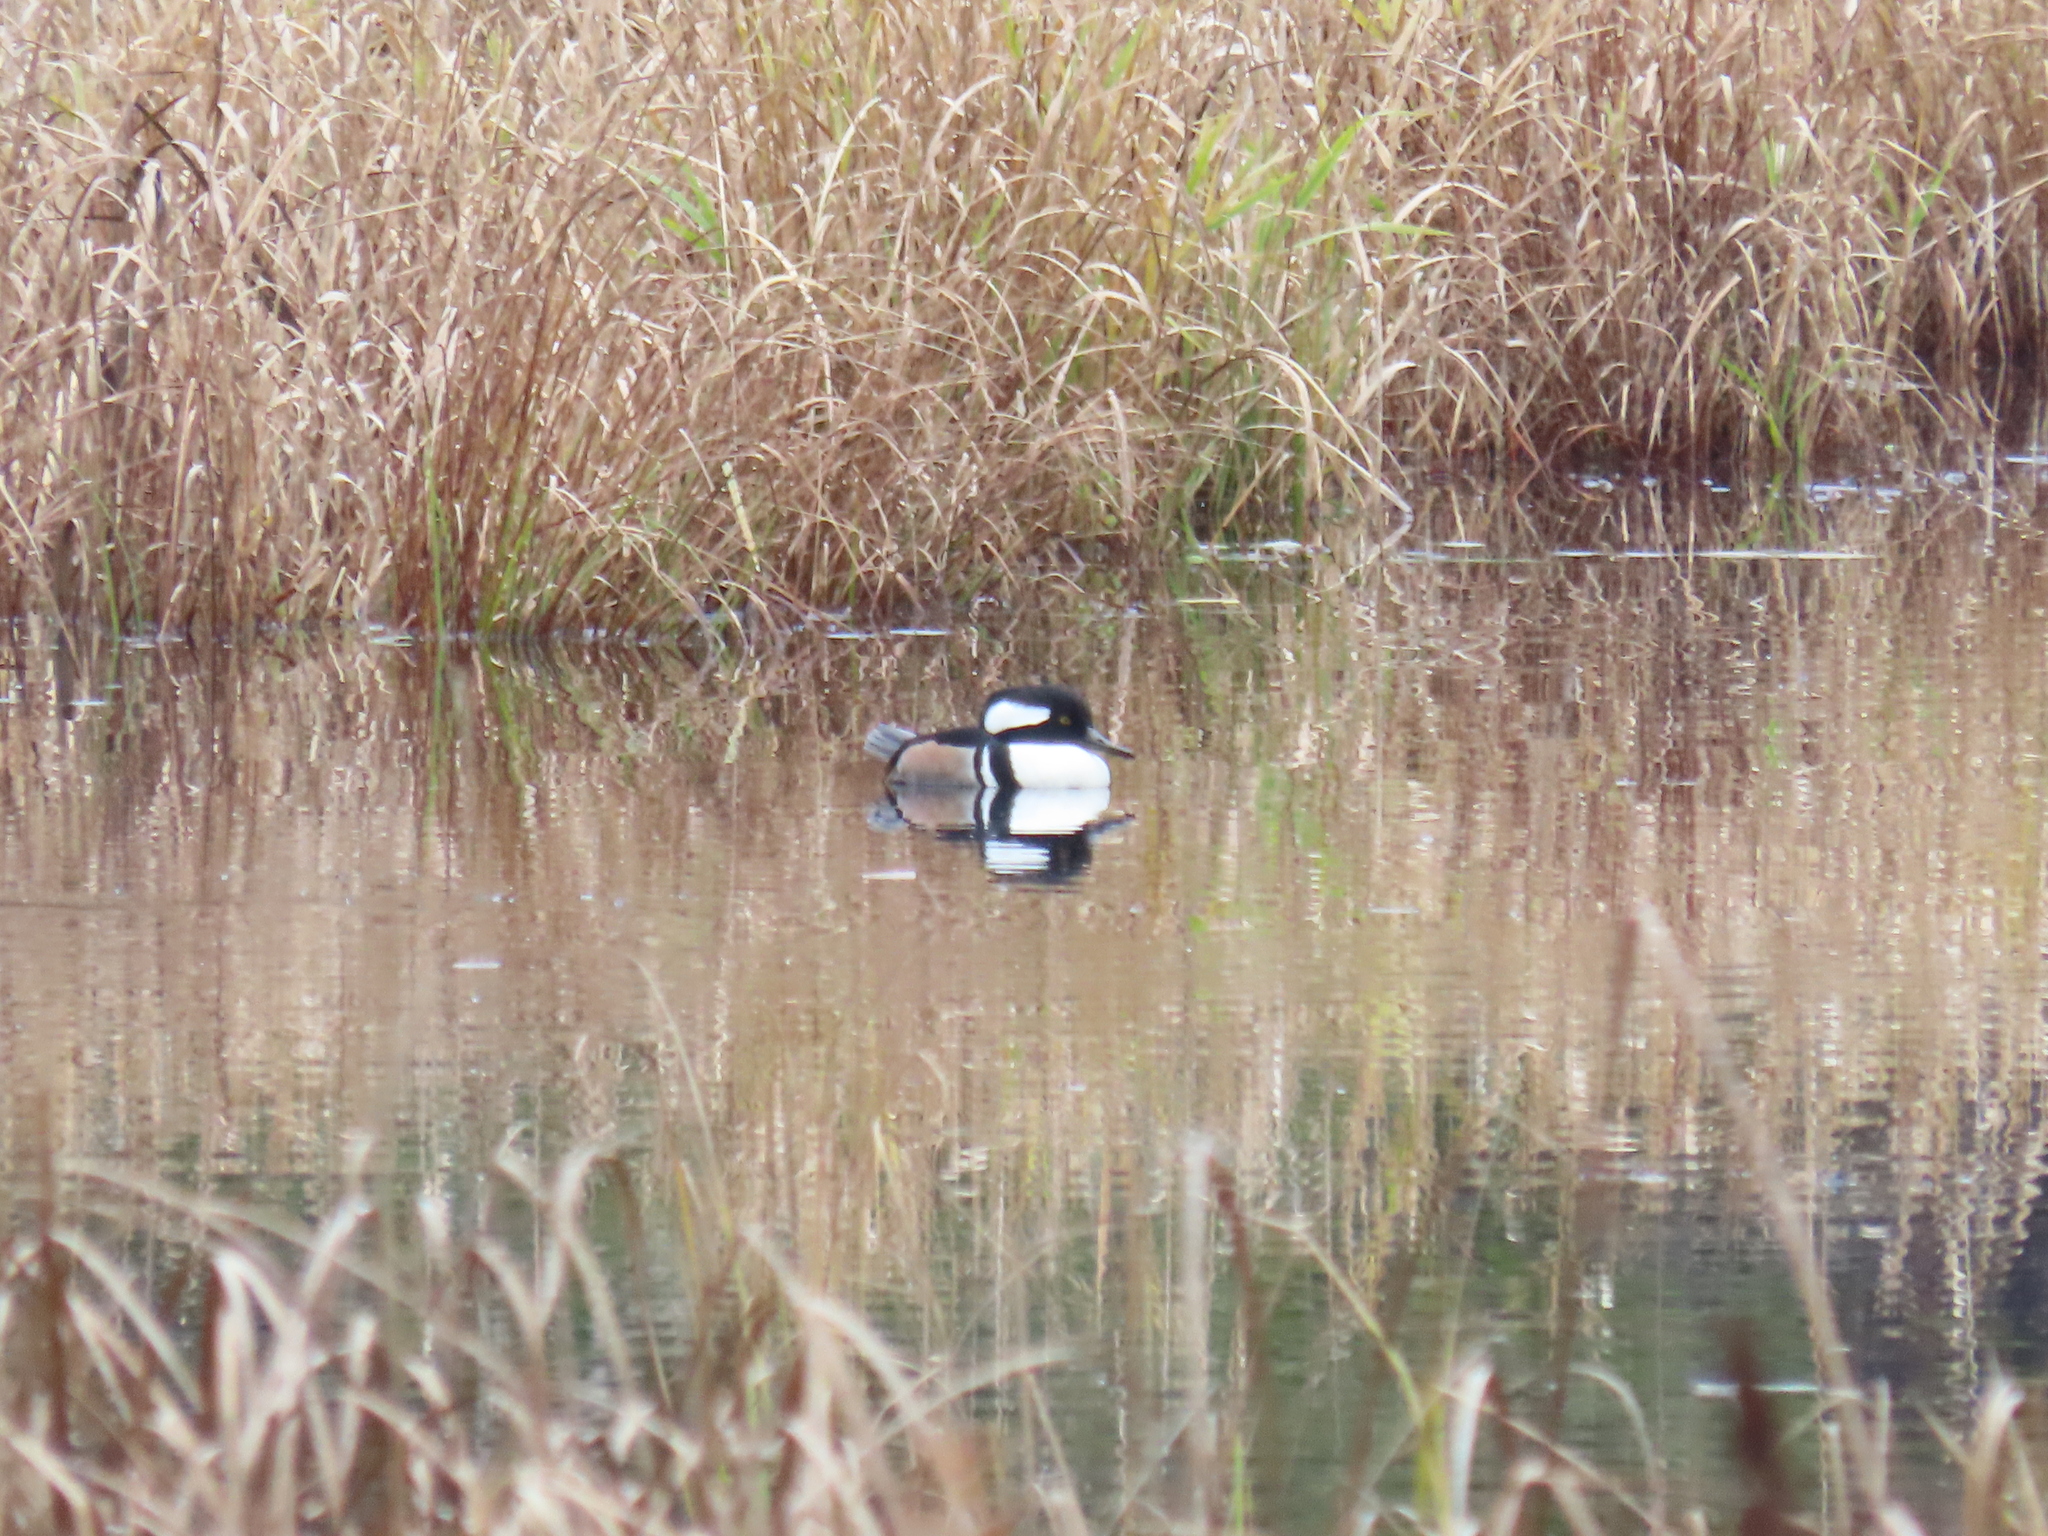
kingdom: Animalia
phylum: Chordata
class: Aves
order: Anseriformes
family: Anatidae
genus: Lophodytes
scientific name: Lophodytes cucullatus
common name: Hooded merganser
